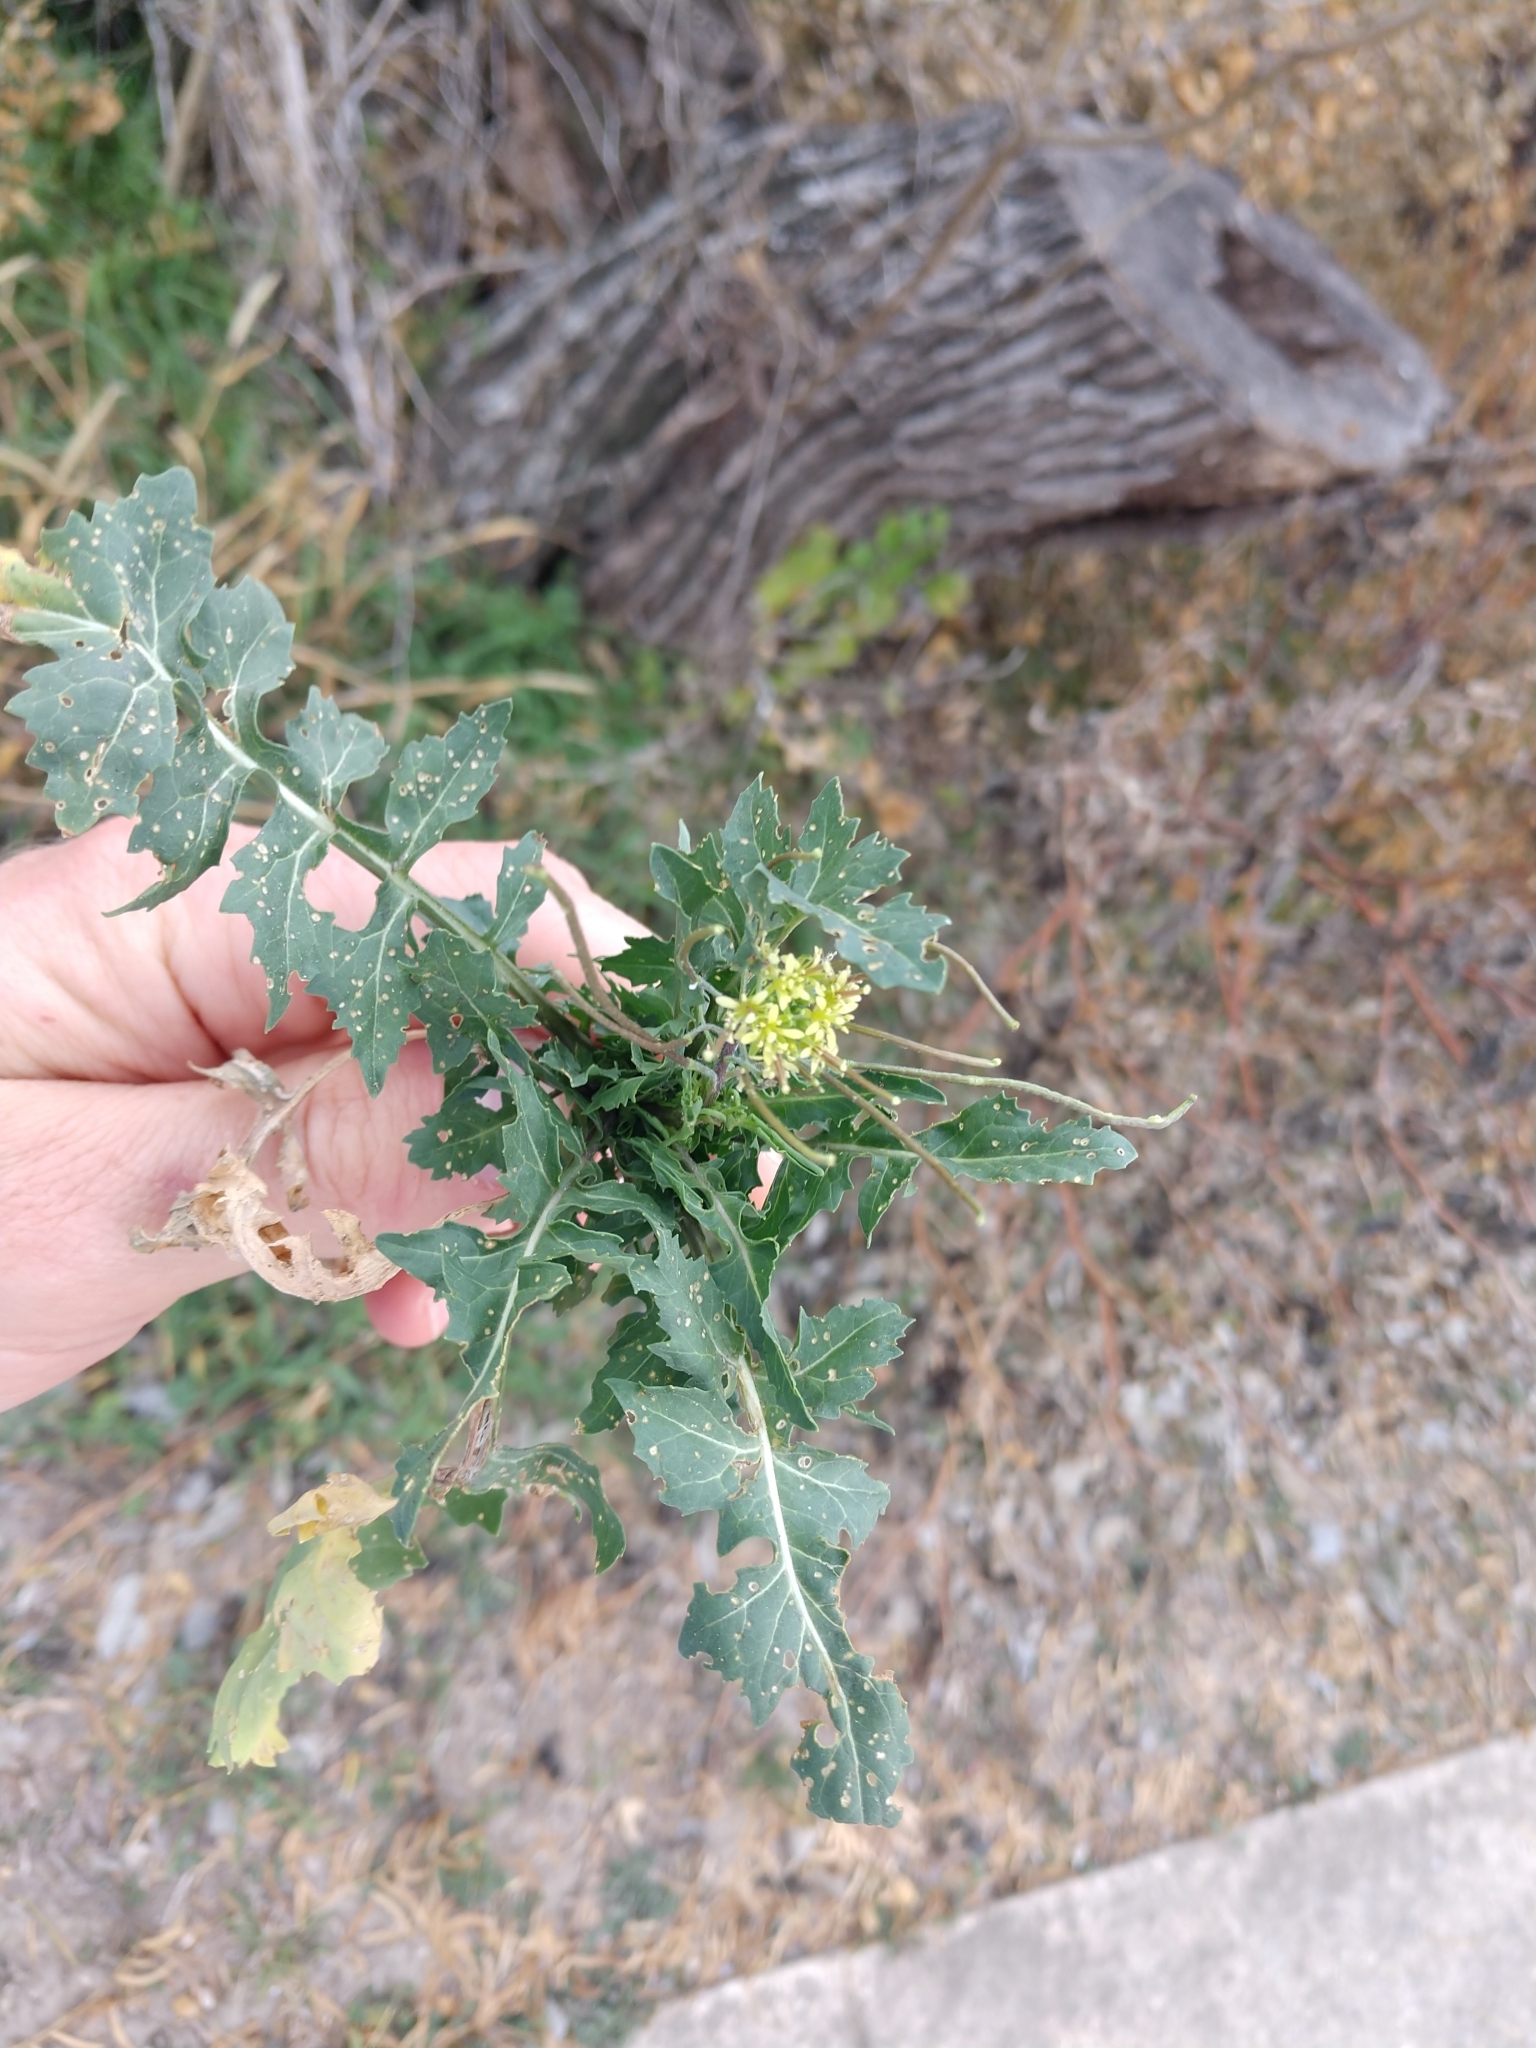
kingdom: Plantae
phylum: Tracheophyta
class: Magnoliopsida
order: Brassicales
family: Brassicaceae
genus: Sisymbrium
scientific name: Sisymbrium irio
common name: London rocket
